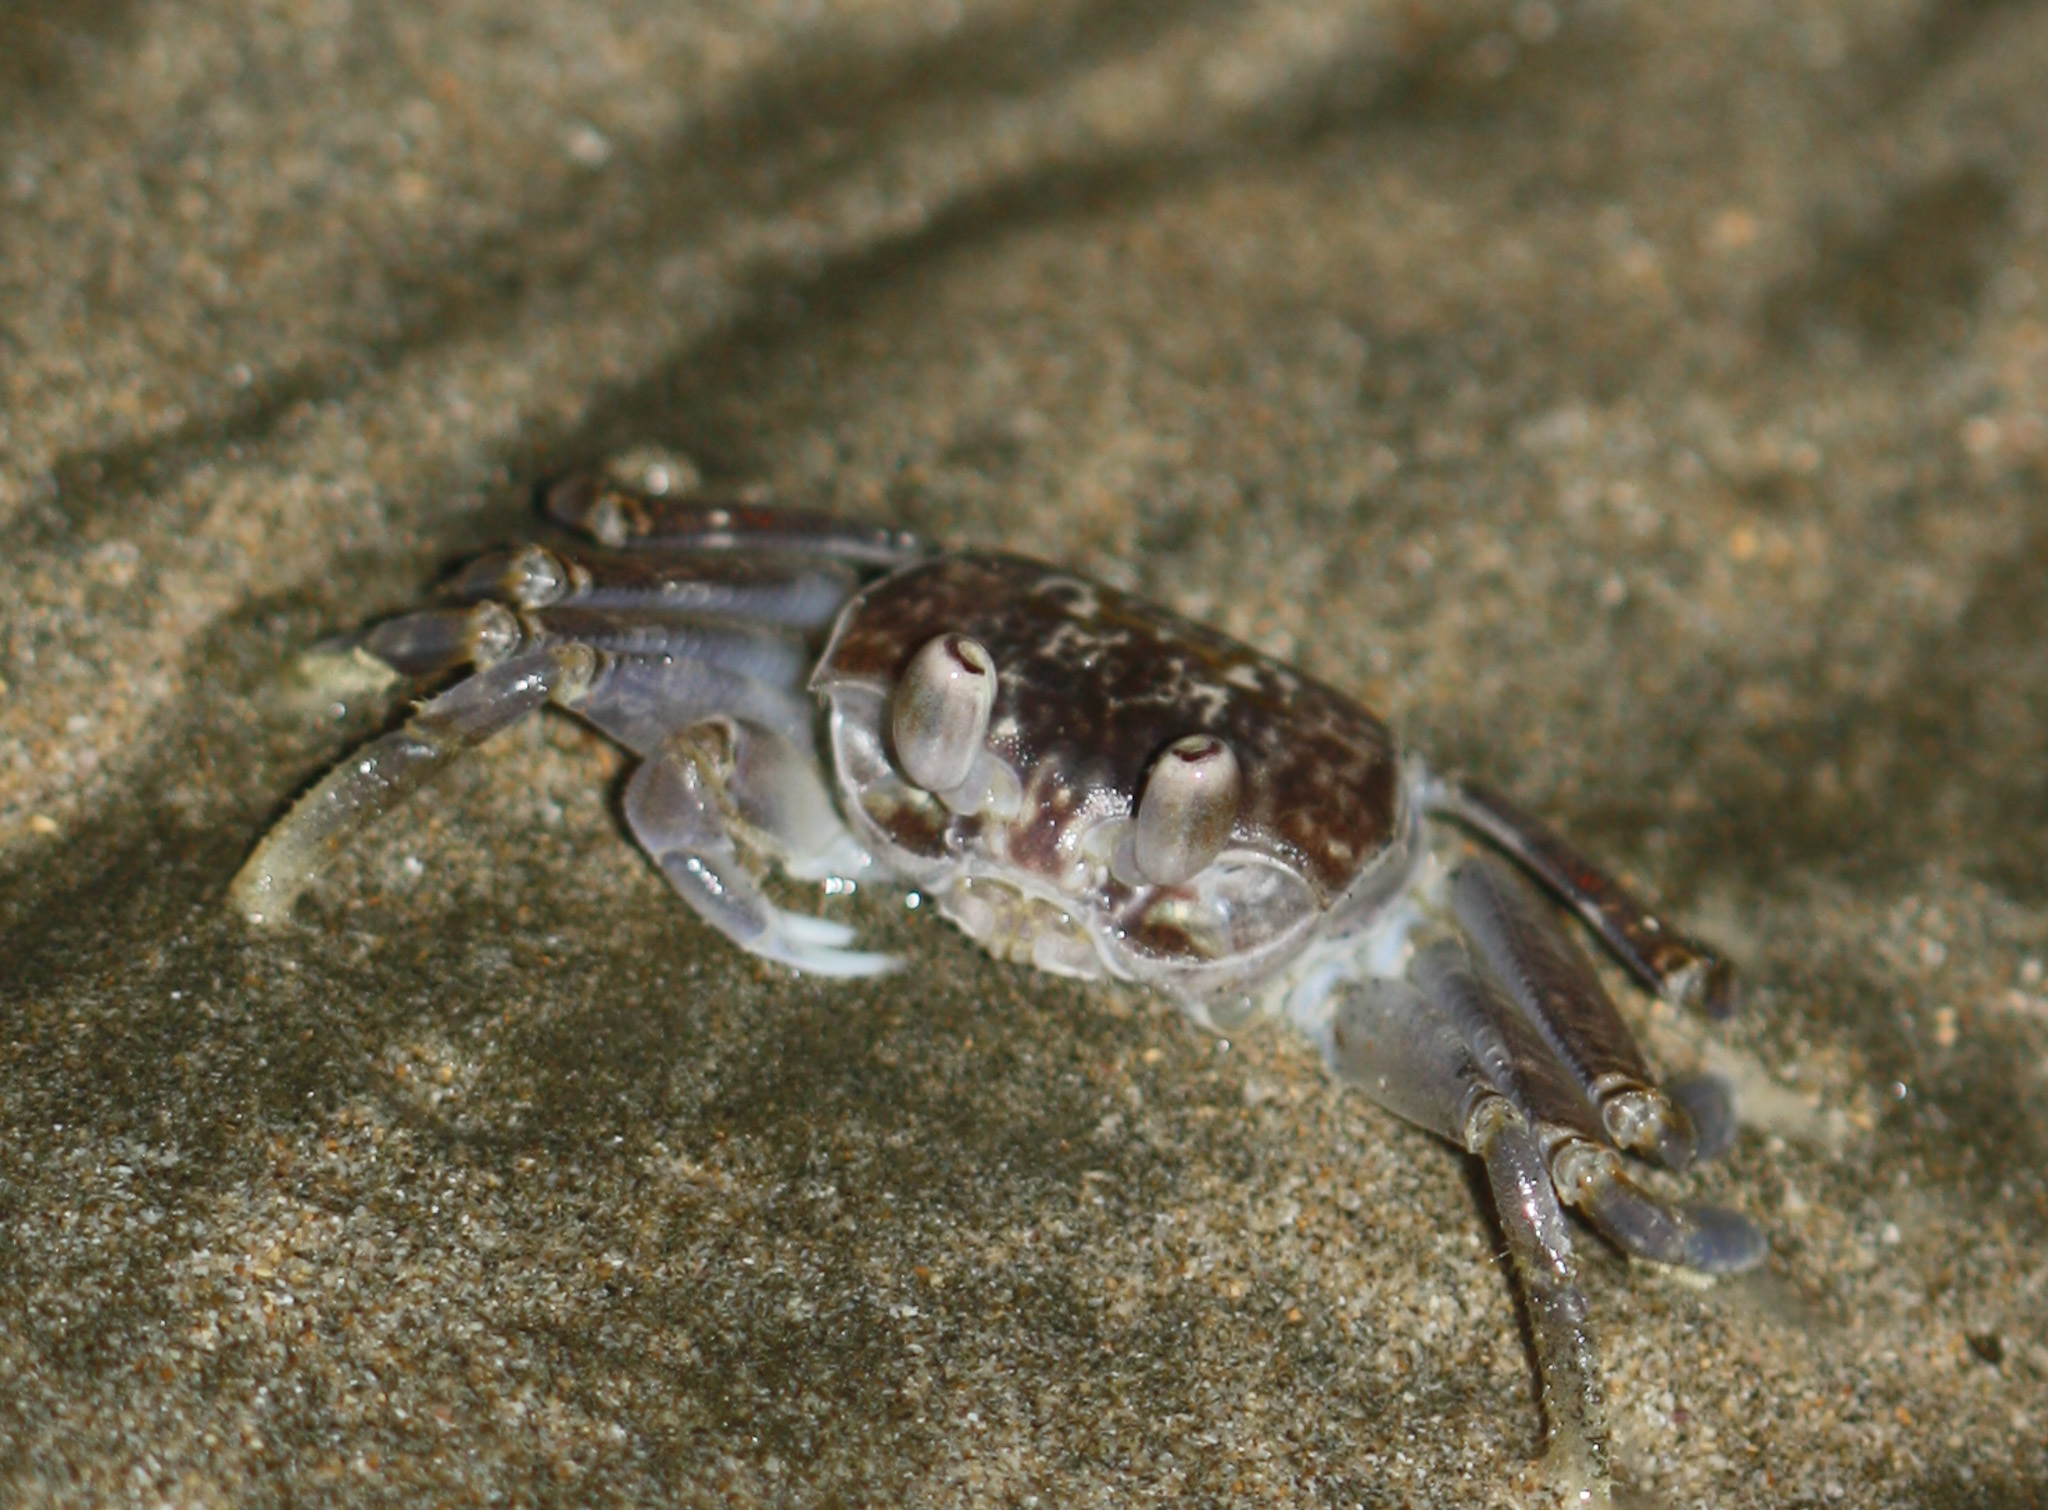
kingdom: Animalia
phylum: Arthropoda
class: Malacostraca
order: Decapoda
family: Ocypodidae
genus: Ocypode
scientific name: Ocypode occidentalis
